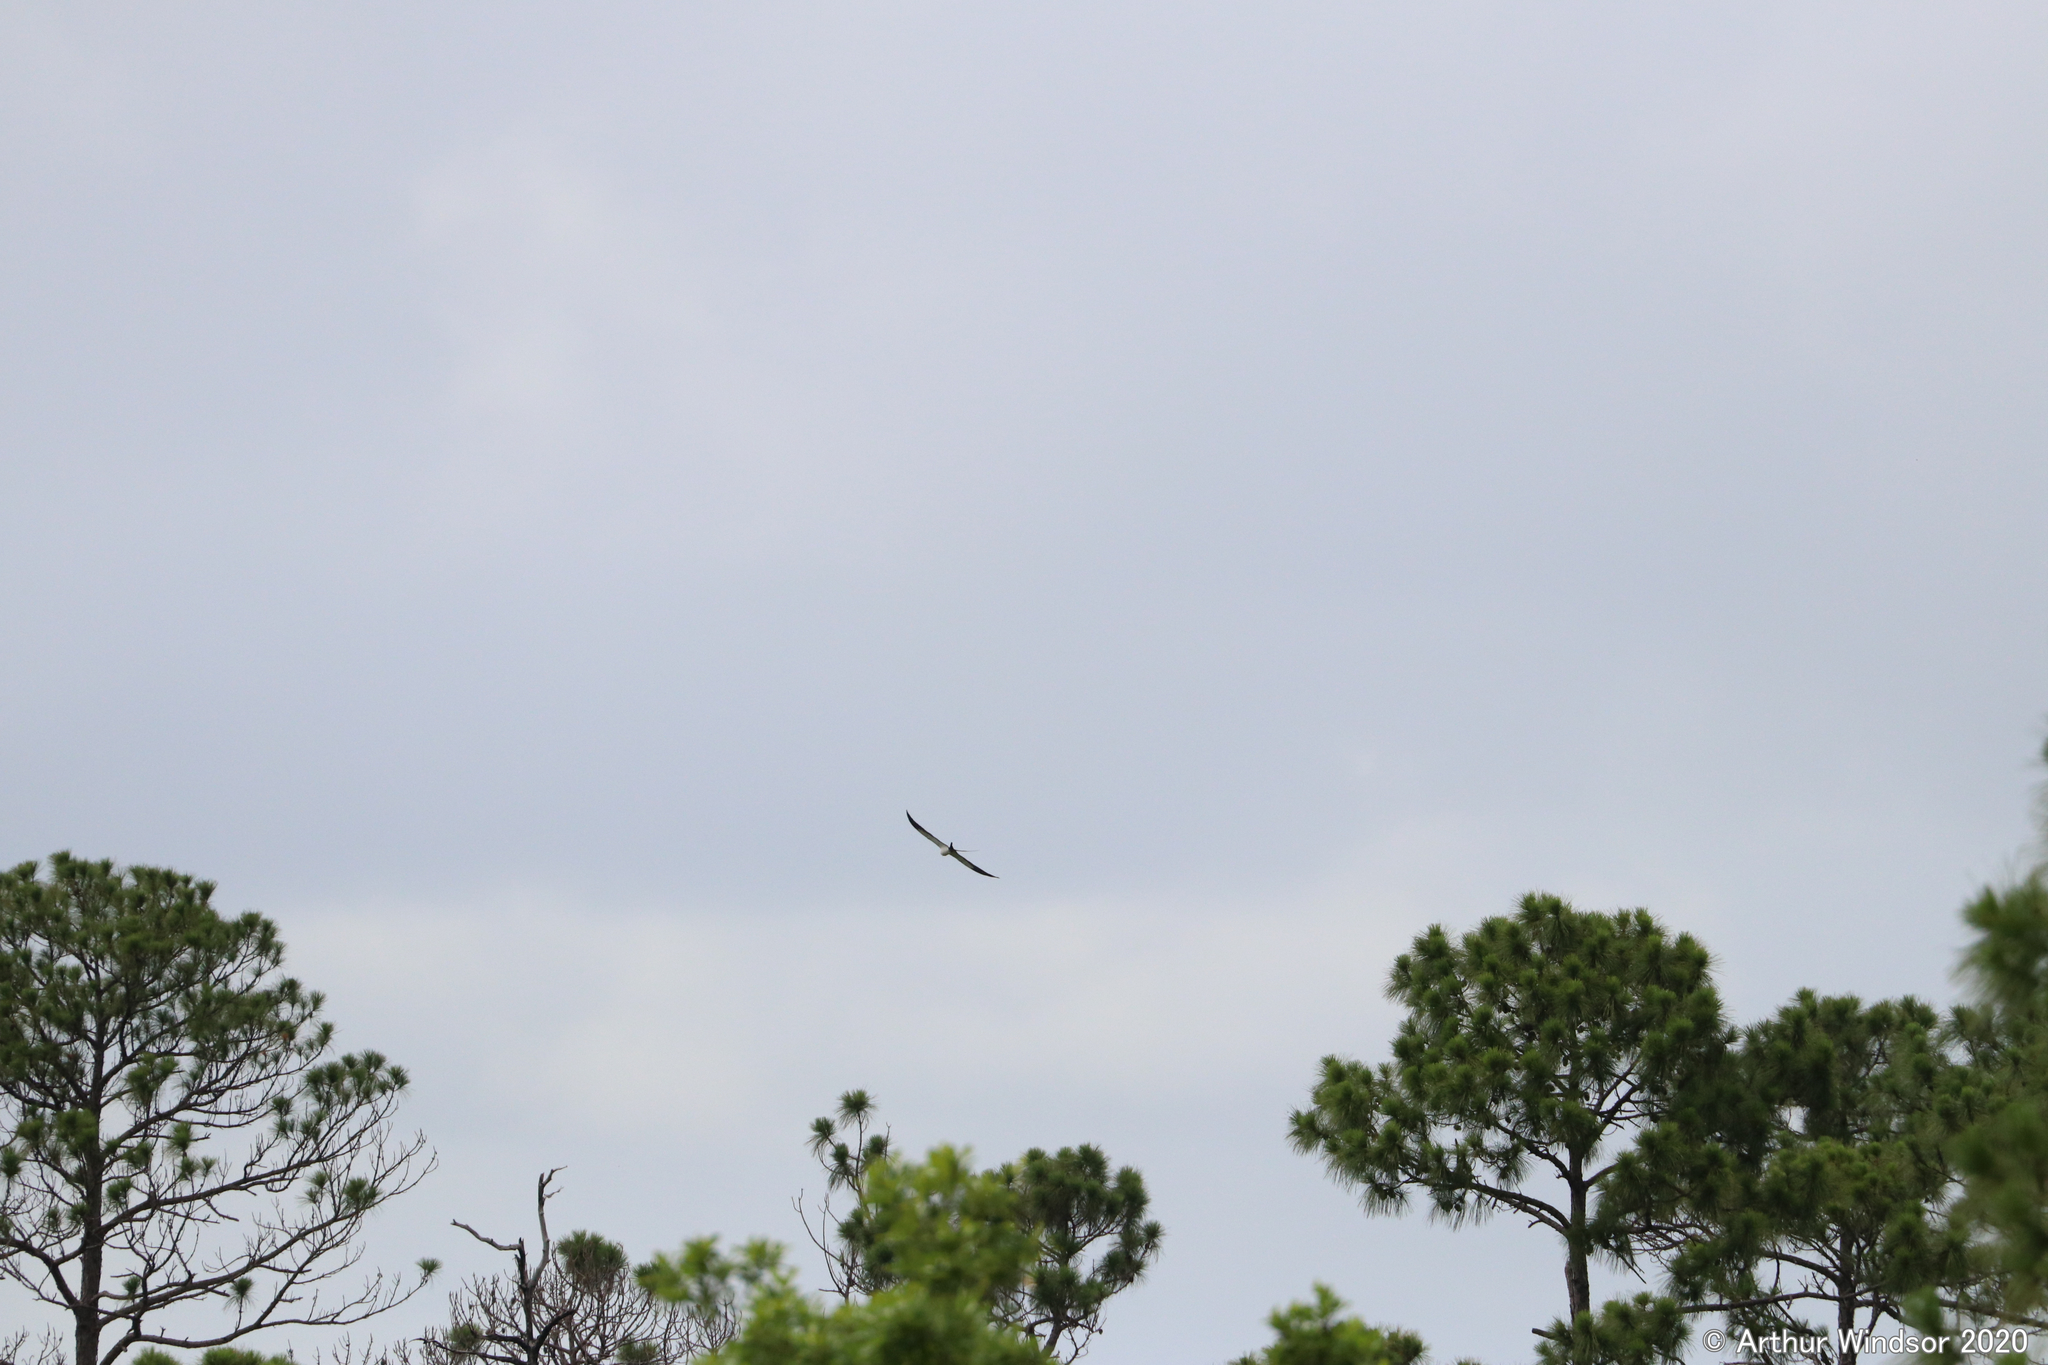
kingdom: Animalia
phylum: Chordata
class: Aves
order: Accipitriformes
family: Accipitridae
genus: Elanoides
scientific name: Elanoides forficatus
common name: Swallow-tailed kite
